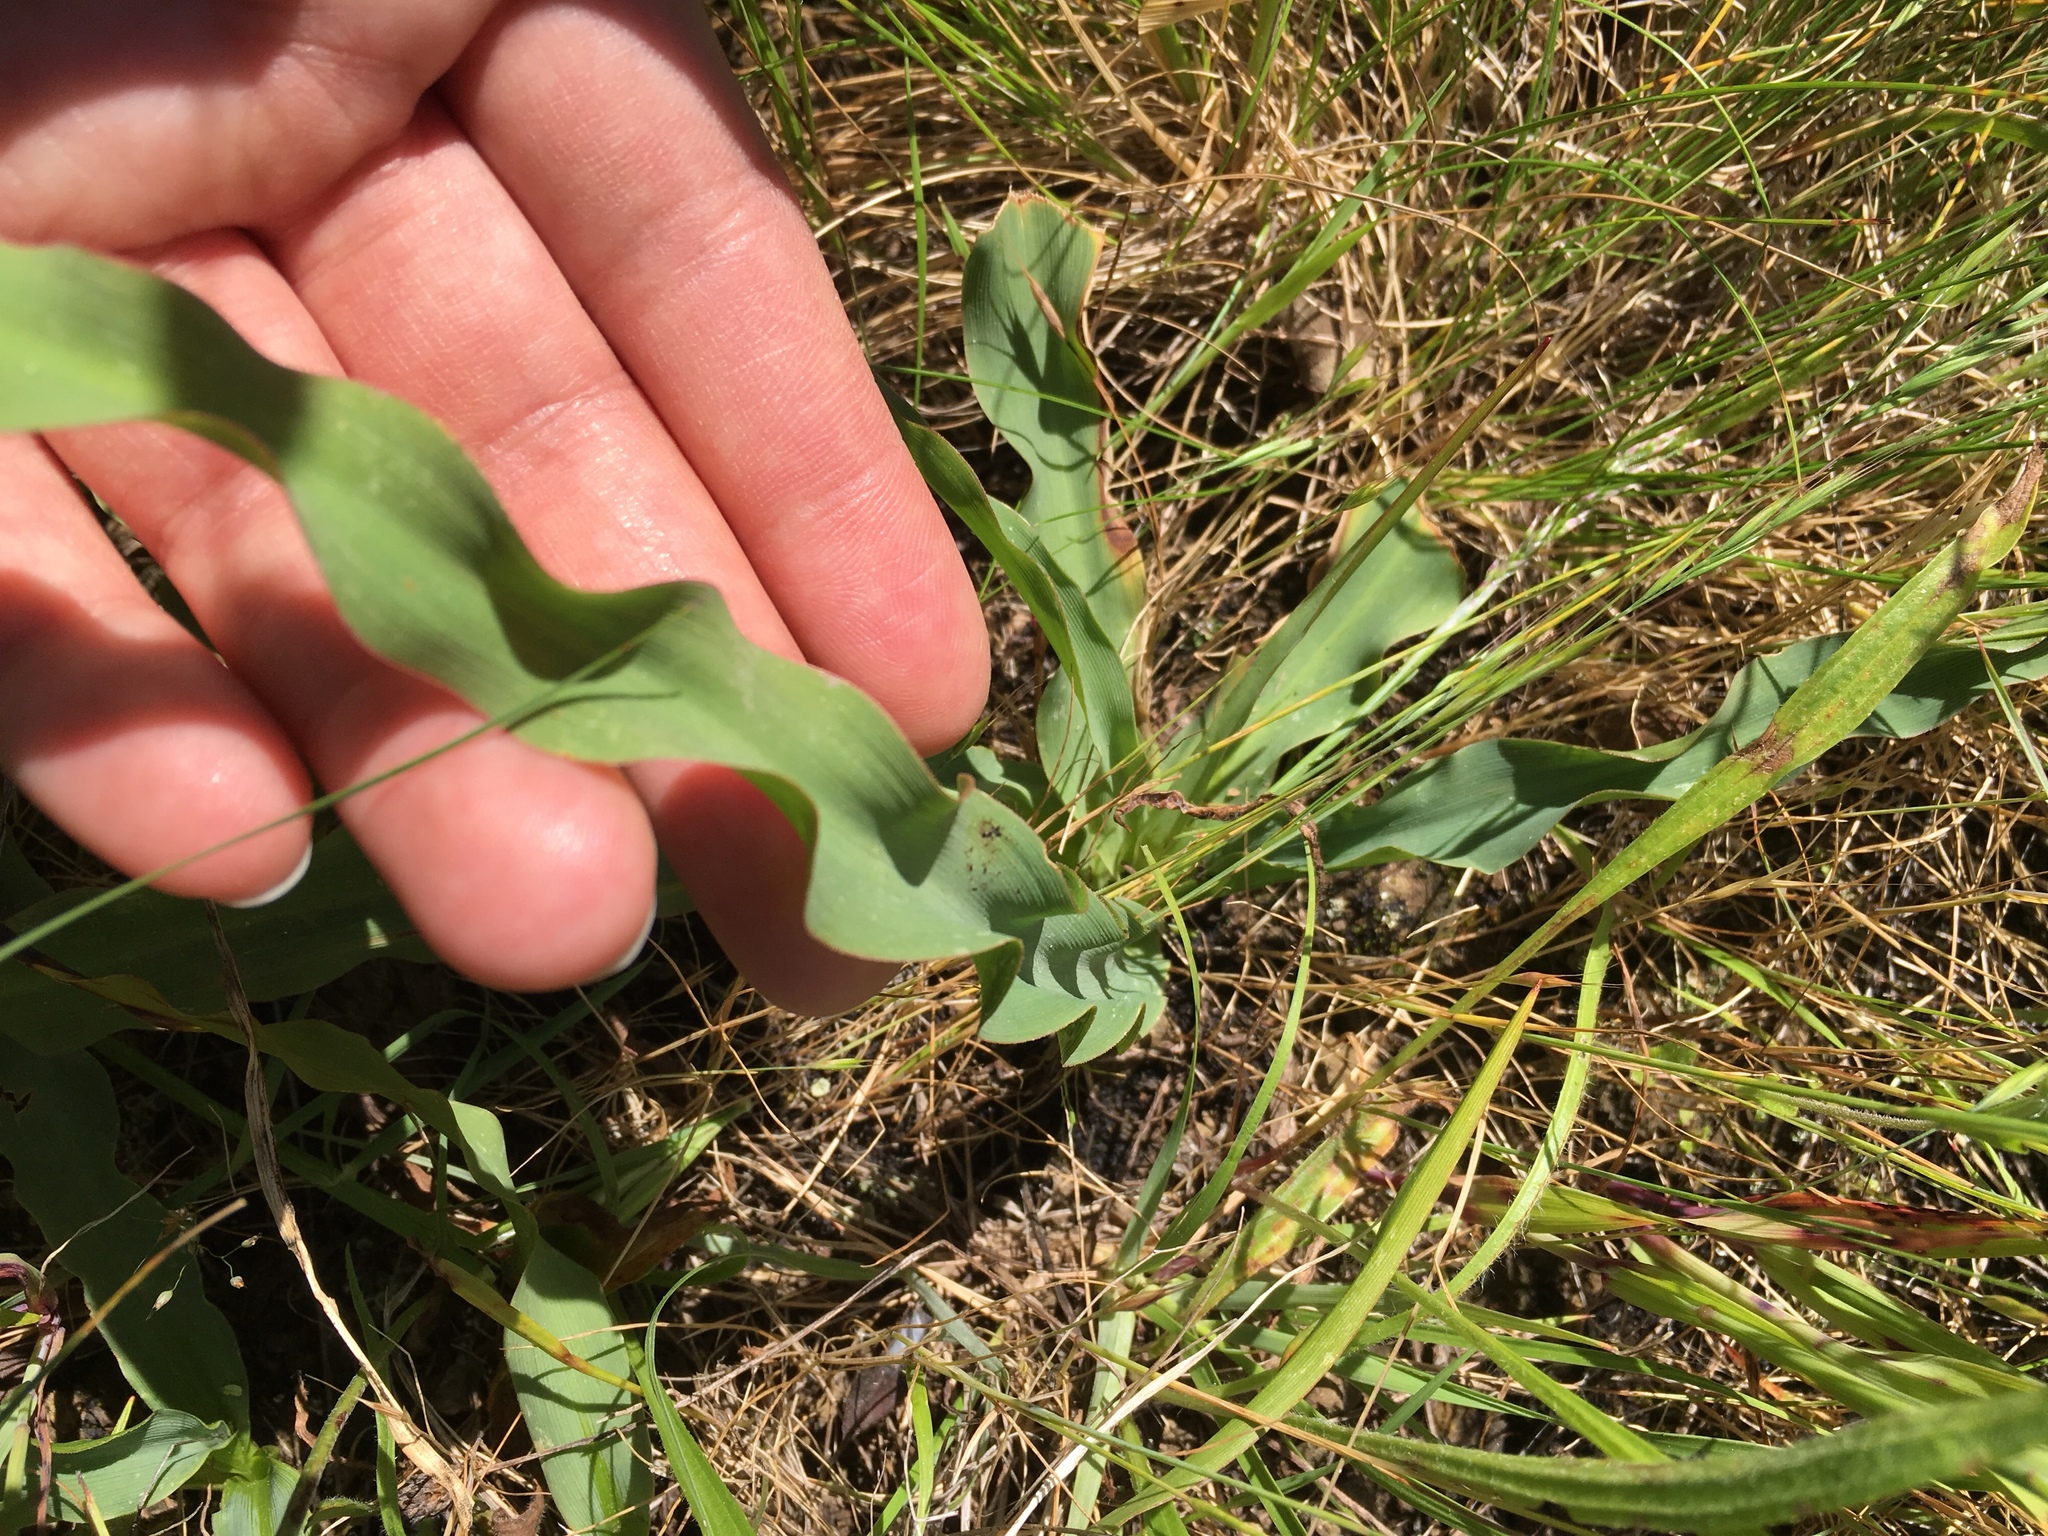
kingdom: Plantae
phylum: Tracheophyta
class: Liliopsida
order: Asparagales
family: Asparagaceae
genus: Chlorogalum
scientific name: Chlorogalum pomeridianum
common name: Amole
